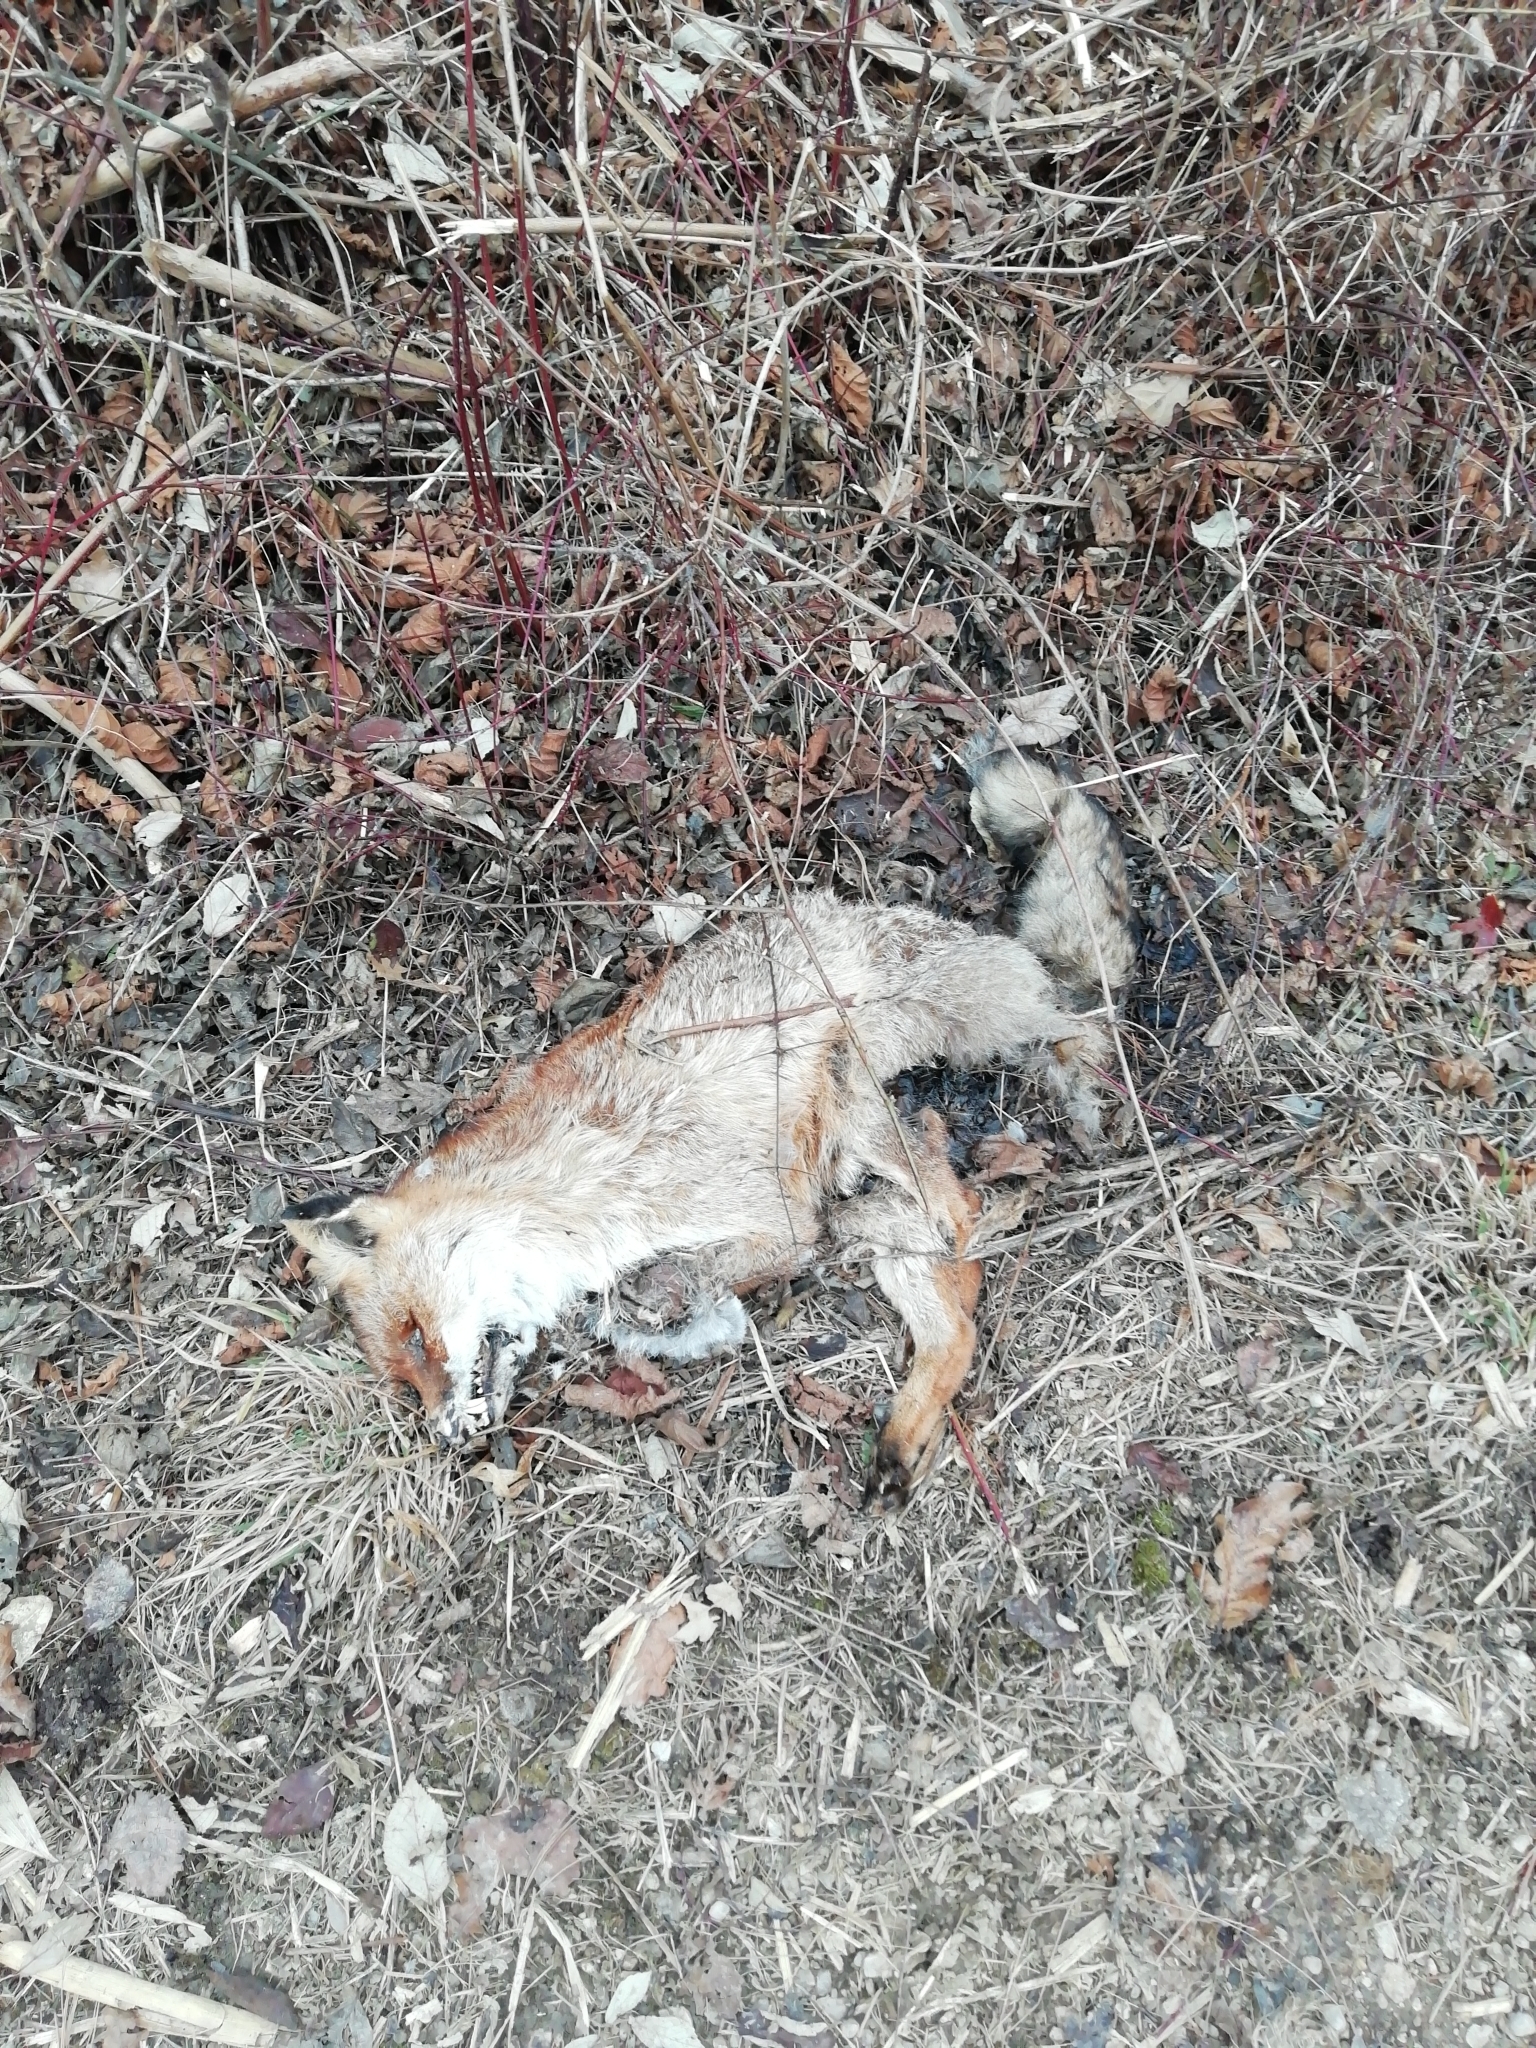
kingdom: Animalia
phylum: Chordata
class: Mammalia
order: Carnivora
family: Canidae
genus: Vulpes
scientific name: Vulpes vulpes
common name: Red fox
